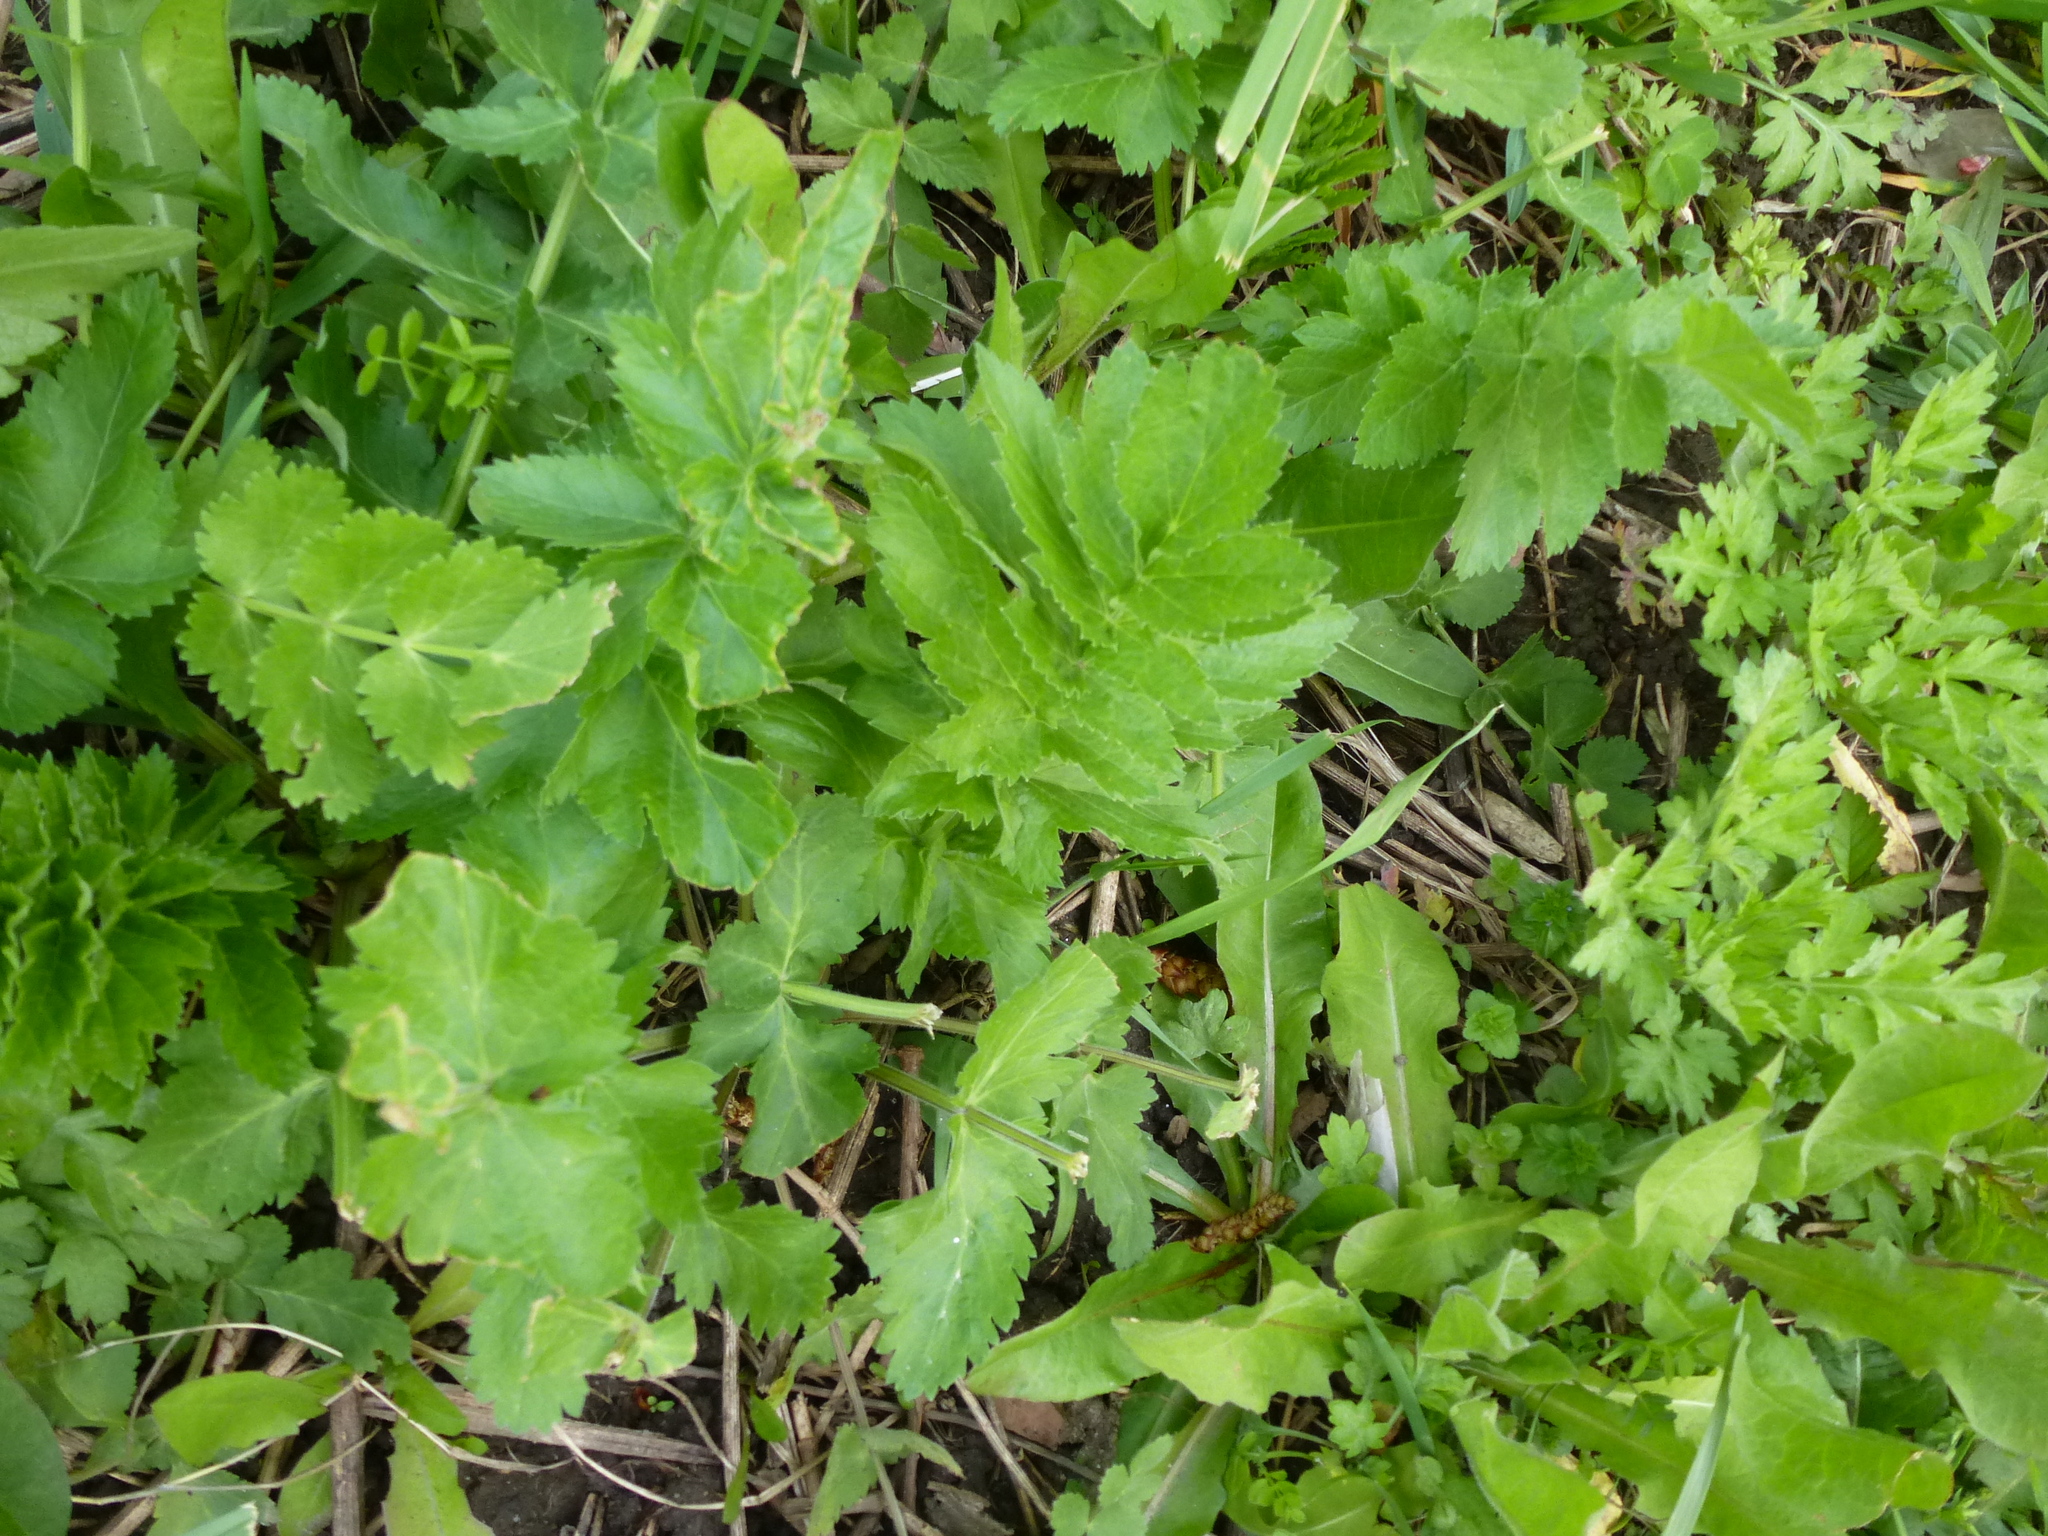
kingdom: Plantae
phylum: Tracheophyta
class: Magnoliopsida
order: Apiales
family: Apiaceae
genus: Pastinaca
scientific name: Pastinaca sativa
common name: Wild parsnip
